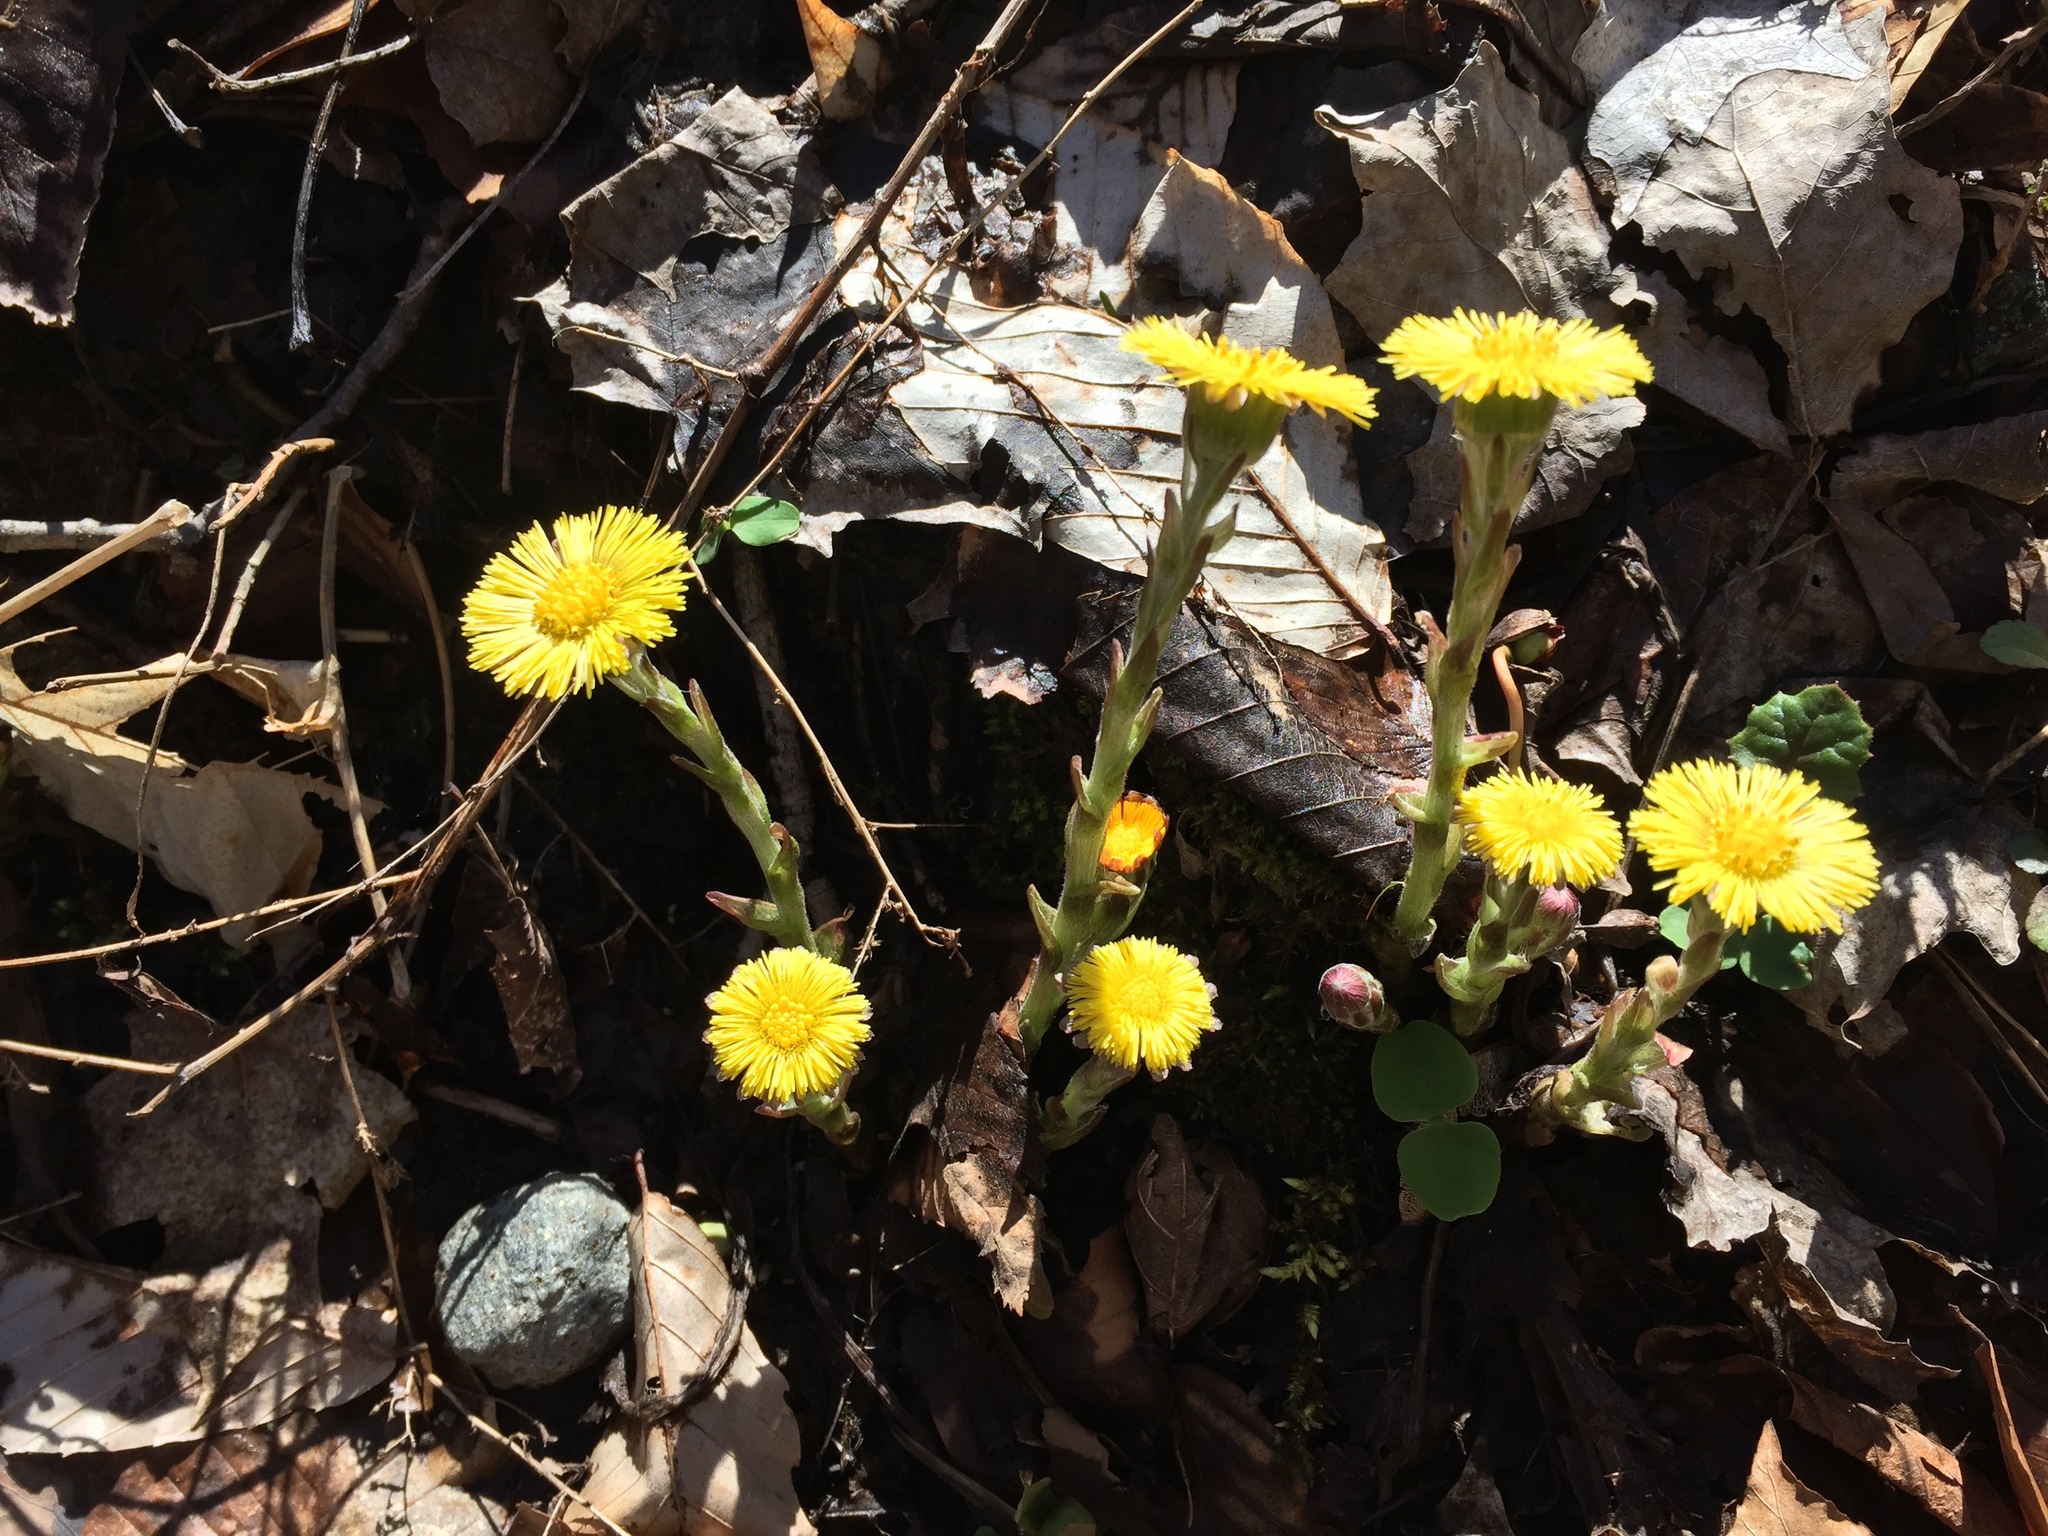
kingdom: Plantae
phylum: Tracheophyta
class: Magnoliopsida
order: Asterales
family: Asteraceae
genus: Tussilago
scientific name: Tussilago farfara
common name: Coltsfoot
